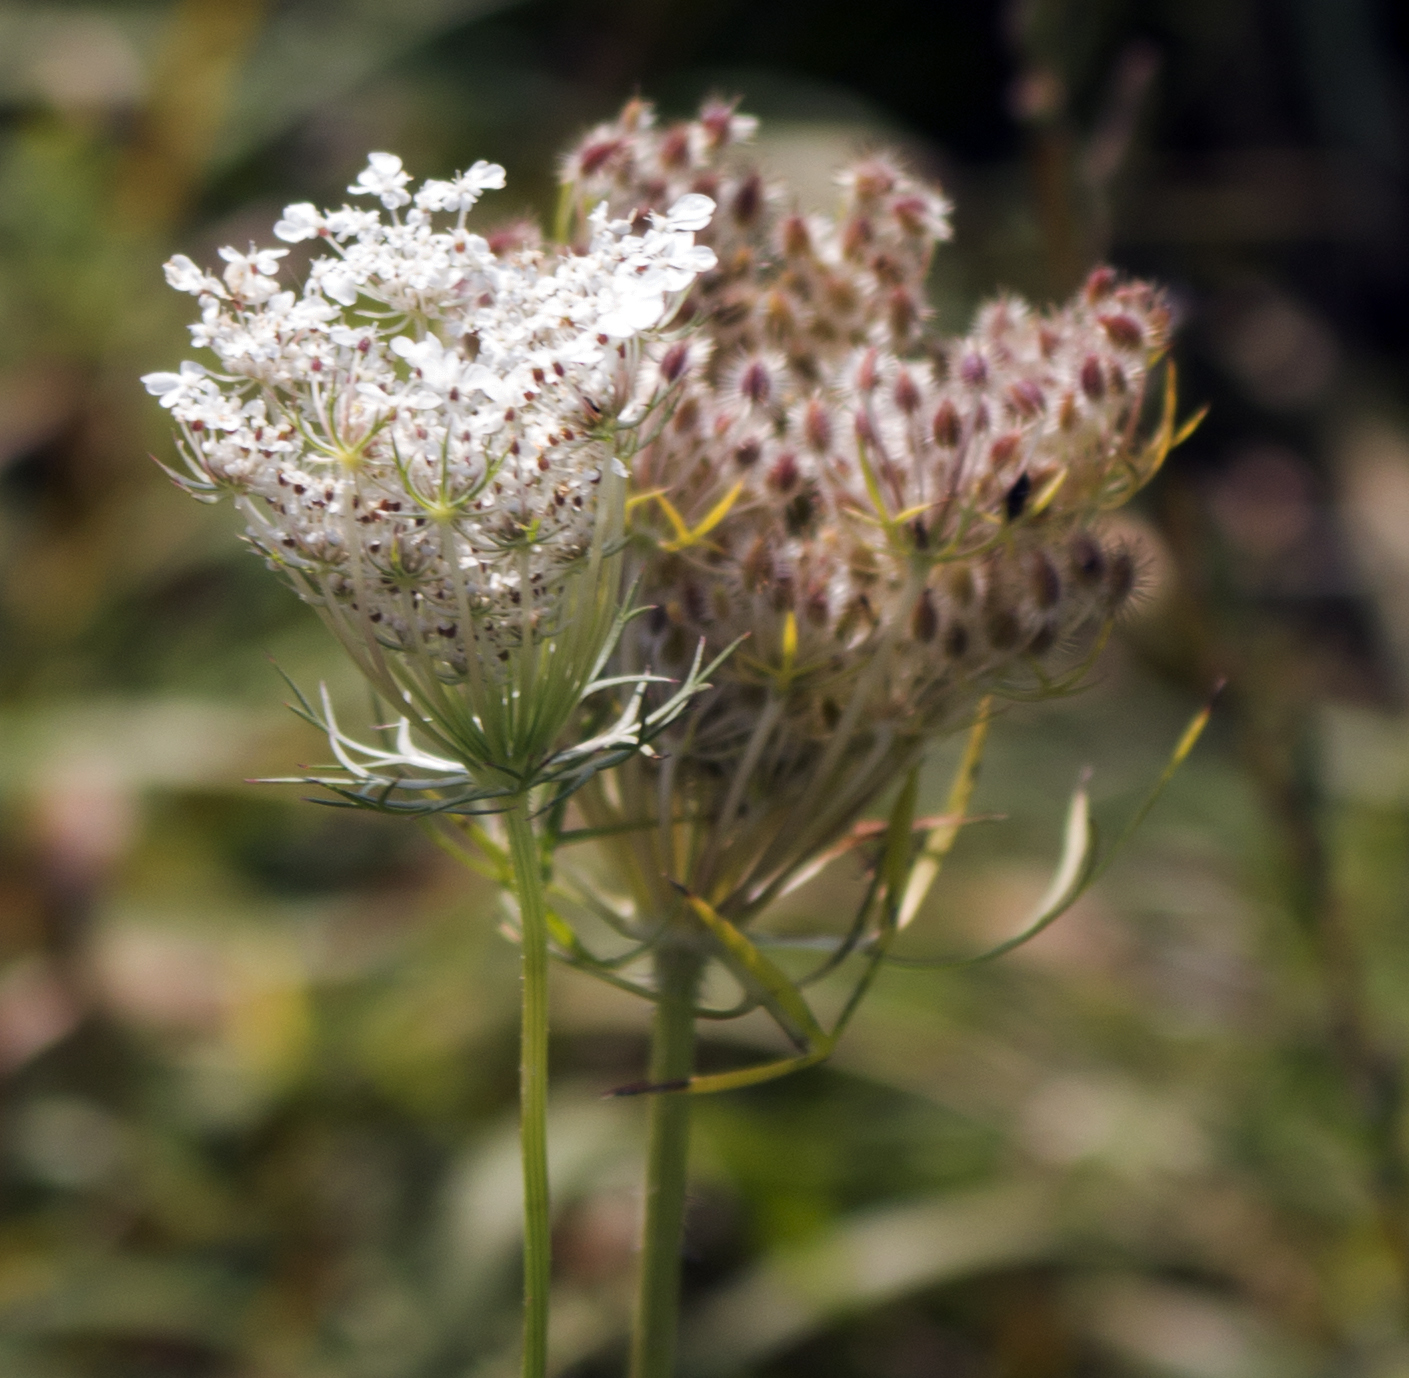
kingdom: Plantae
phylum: Tracheophyta
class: Magnoliopsida
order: Apiales
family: Apiaceae
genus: Daucus
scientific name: Daucus carota
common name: Wild carrot
